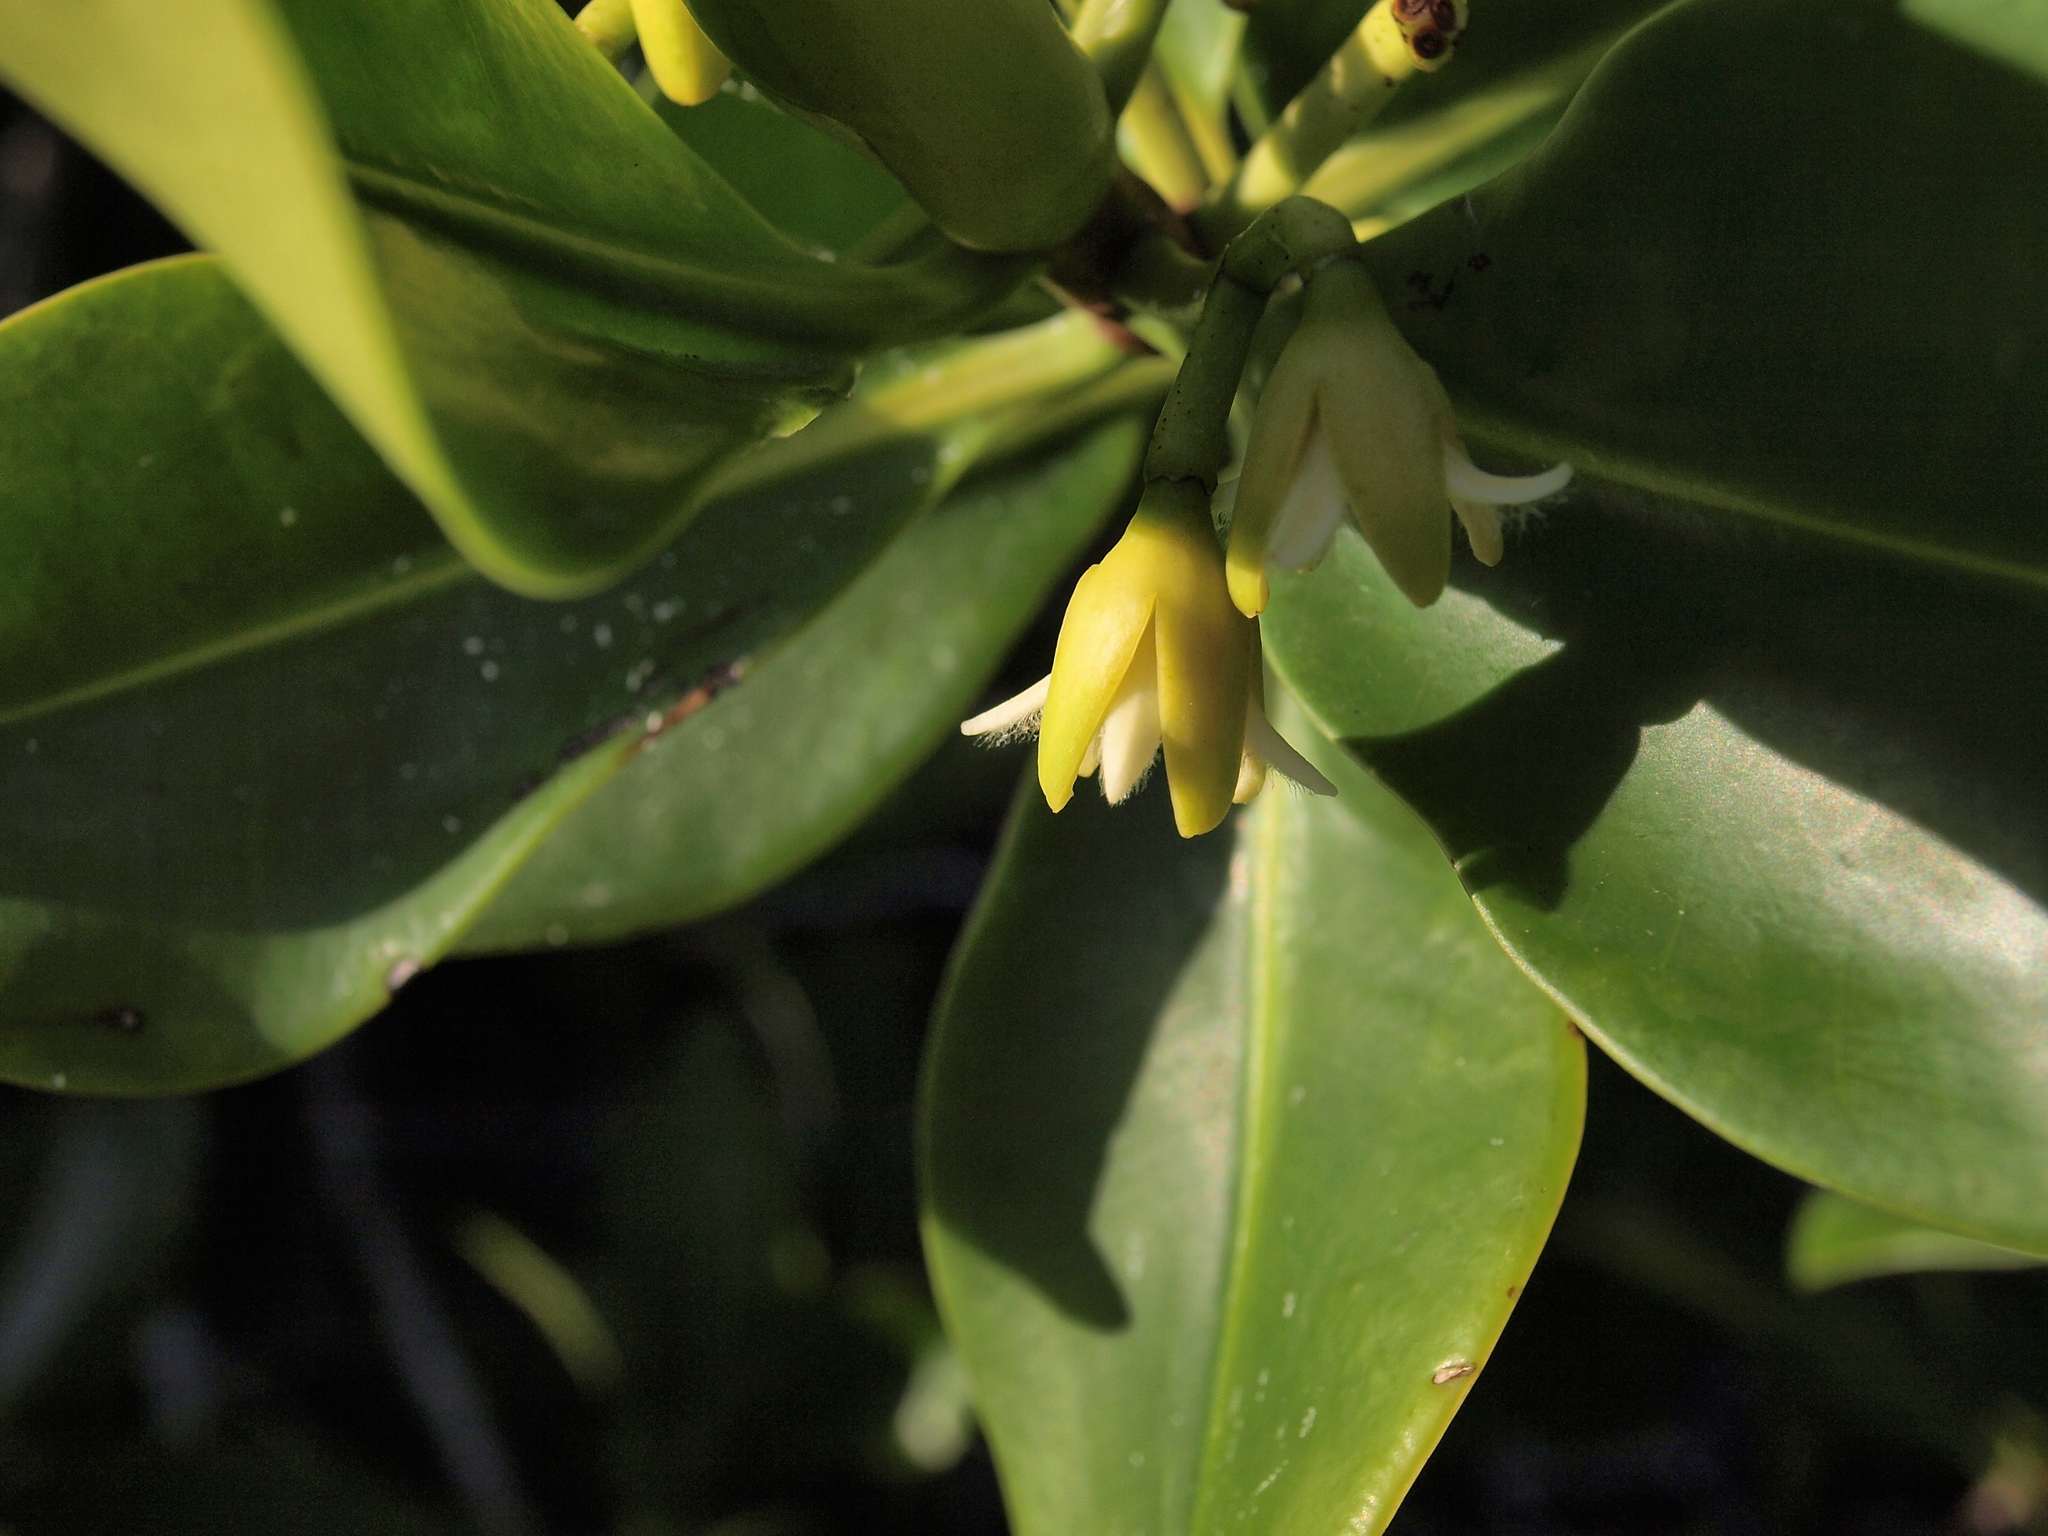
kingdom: Plantae
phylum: Tracheophyta
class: Magnoliopsida
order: Malpighiales
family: Rhizophoraceae
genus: Rhizophora
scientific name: Rhizophora mangle
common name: Red mangrove
